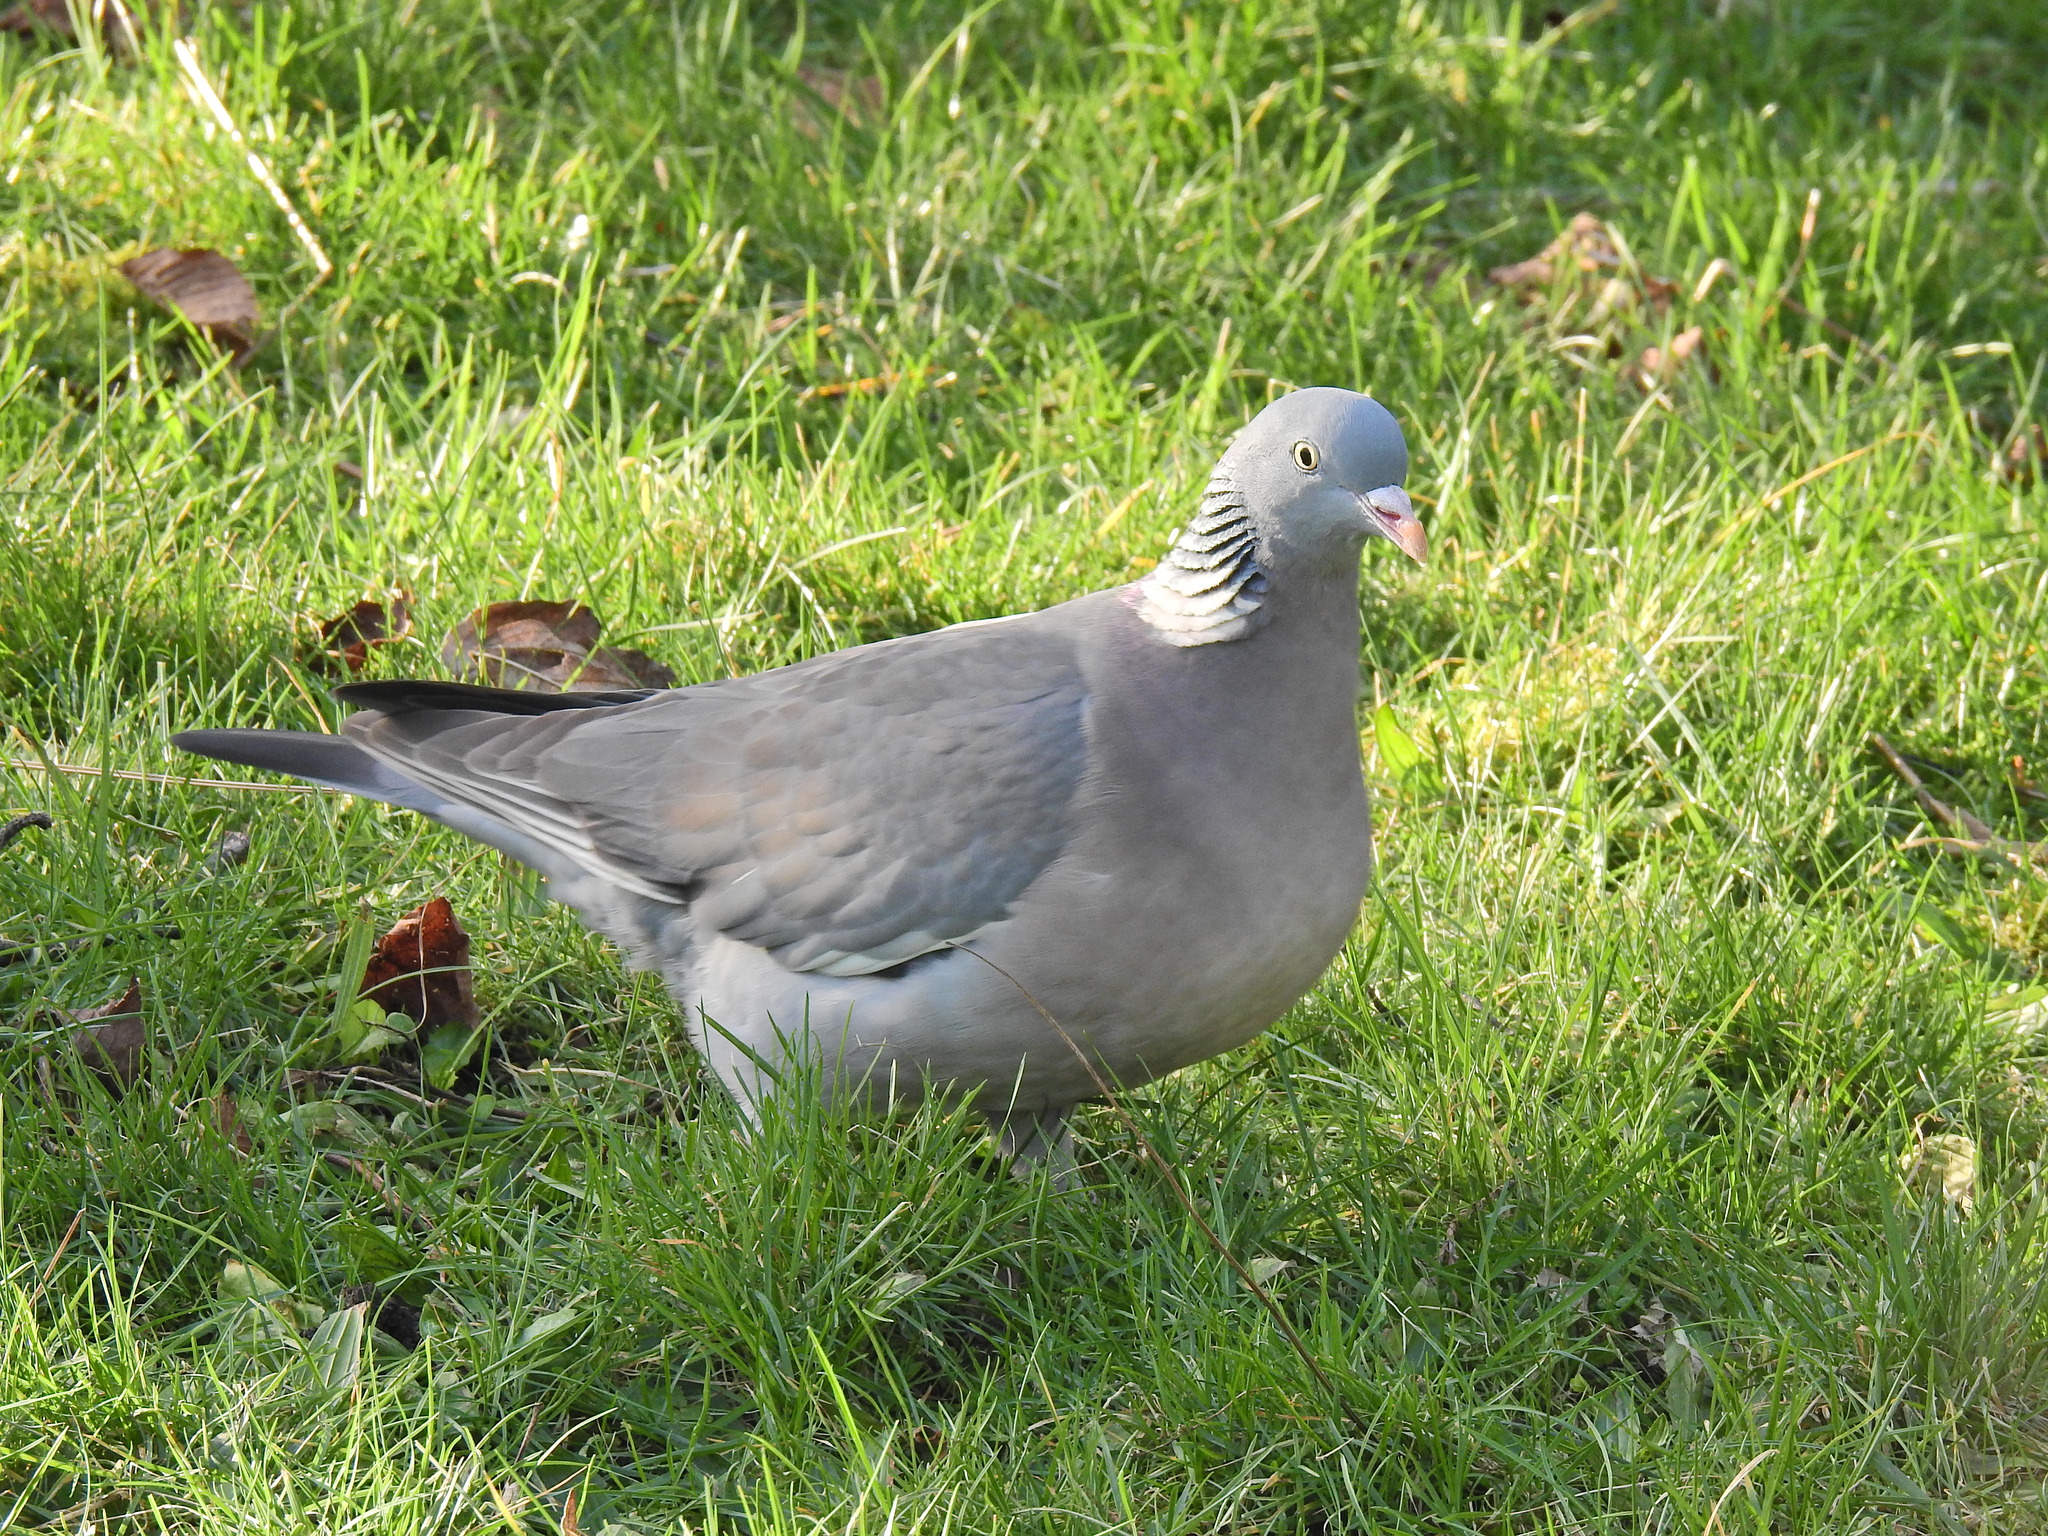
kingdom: Animalia
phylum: Chordata
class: Aves
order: Columbiformes
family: Columbidae
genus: Columba
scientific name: Columba palumbus
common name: Common wood pigeon
